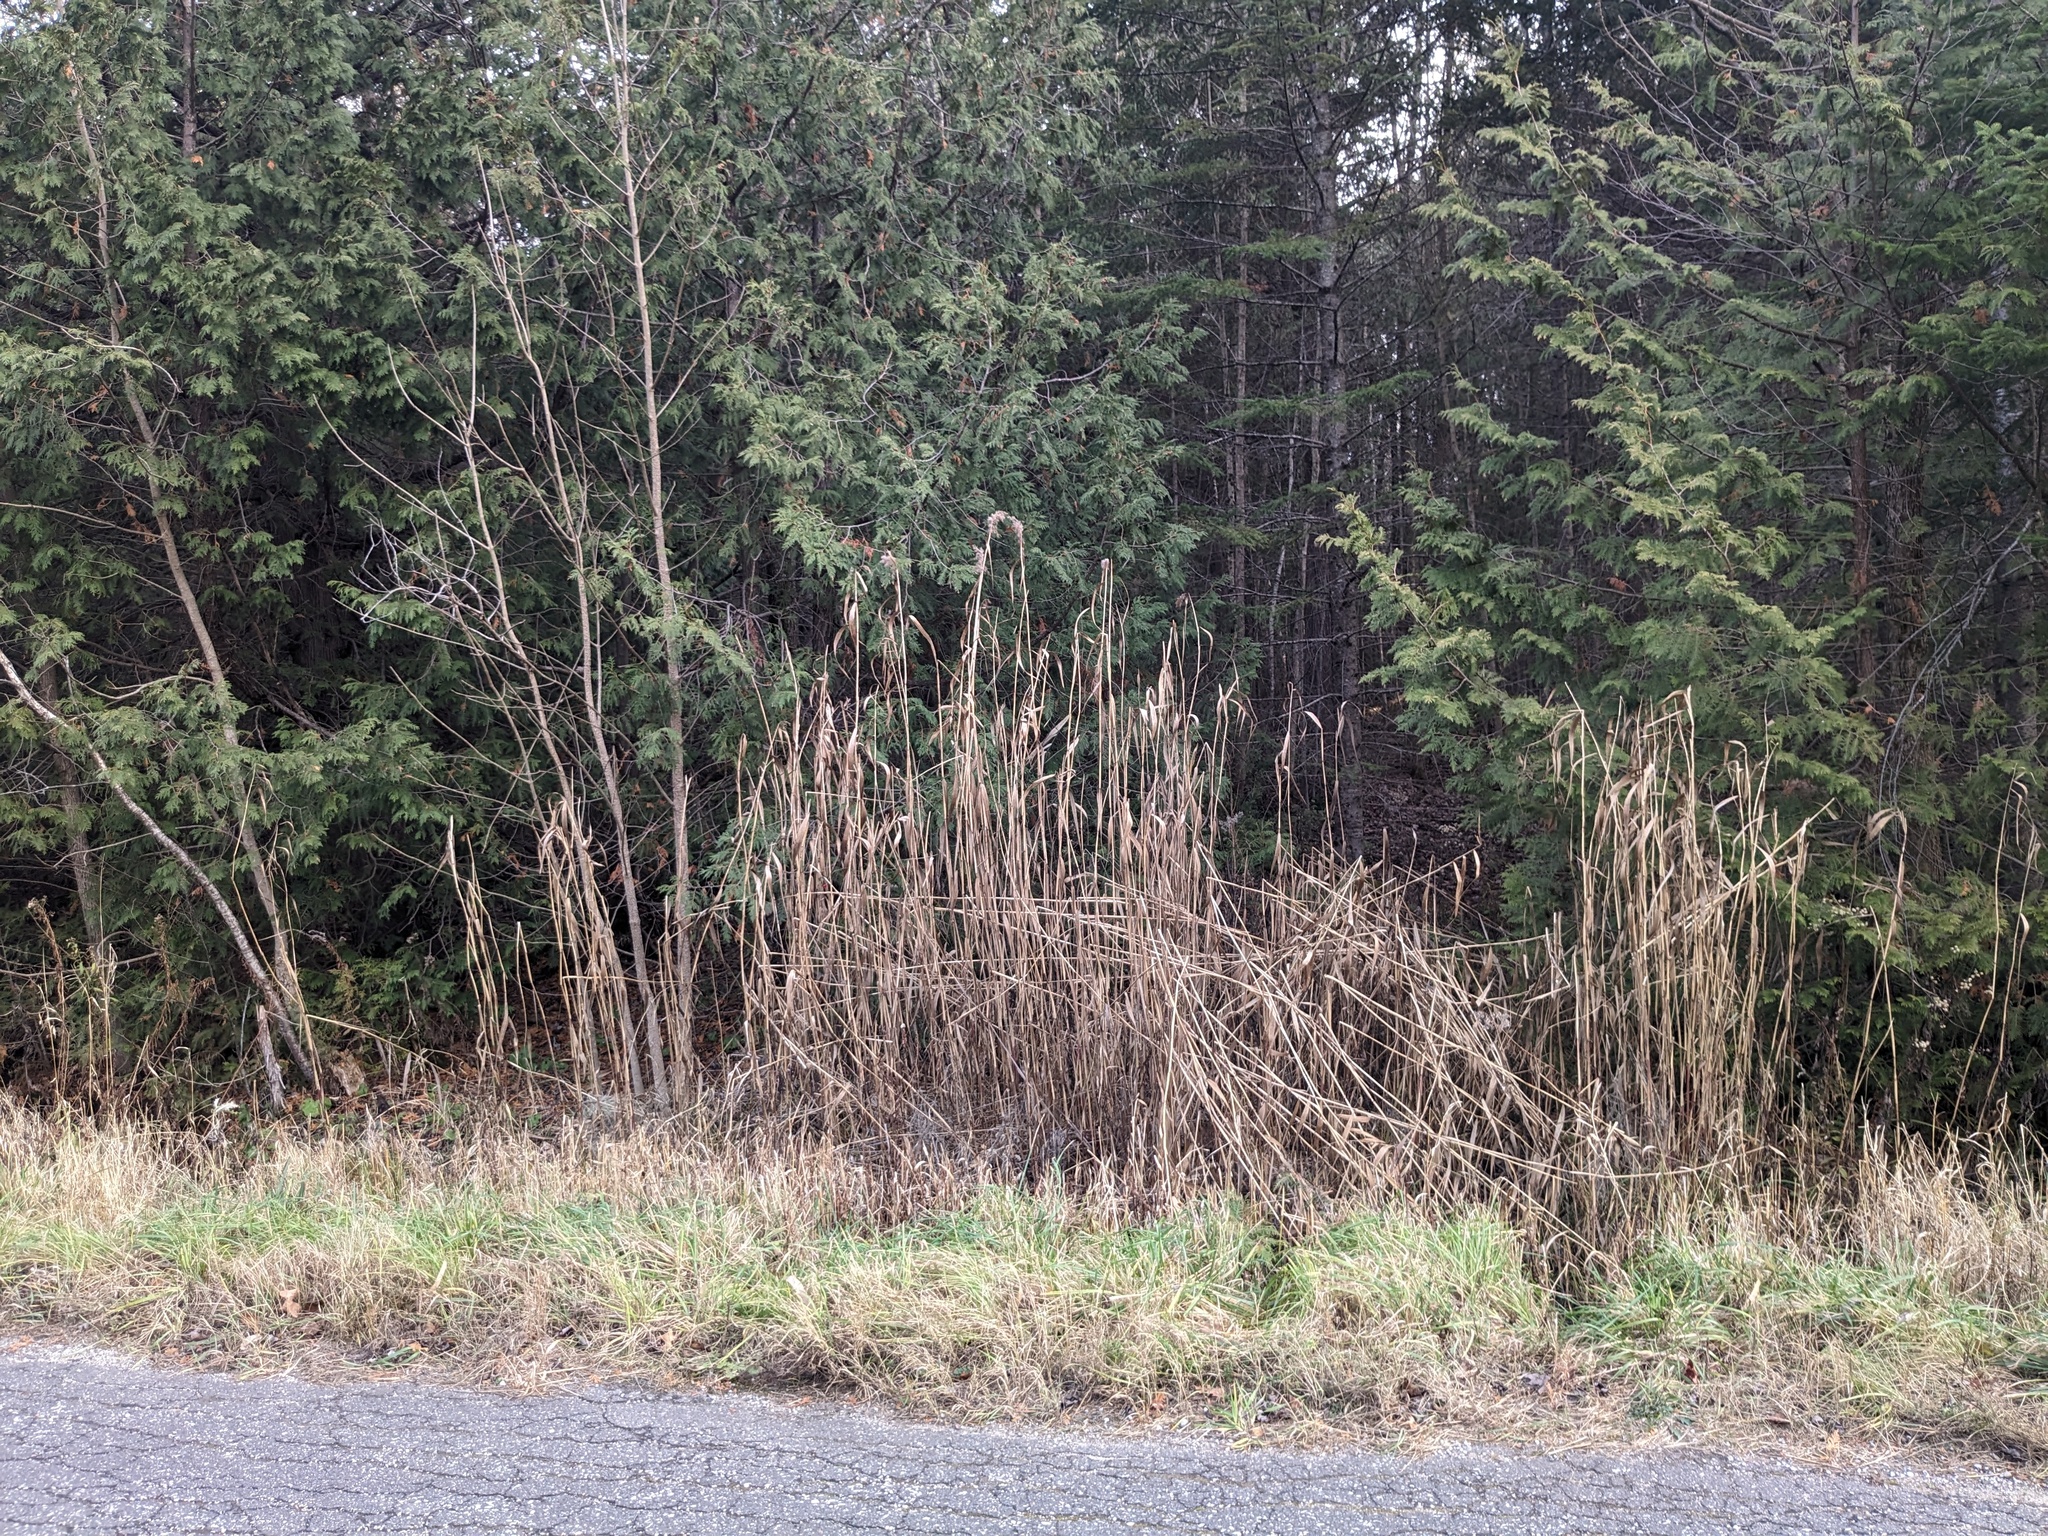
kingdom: Plantae
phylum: Tracheophyta
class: Liliopsida
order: Poales
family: Poaceae
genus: Phragmites
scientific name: Phragmites australis
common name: Common reed
